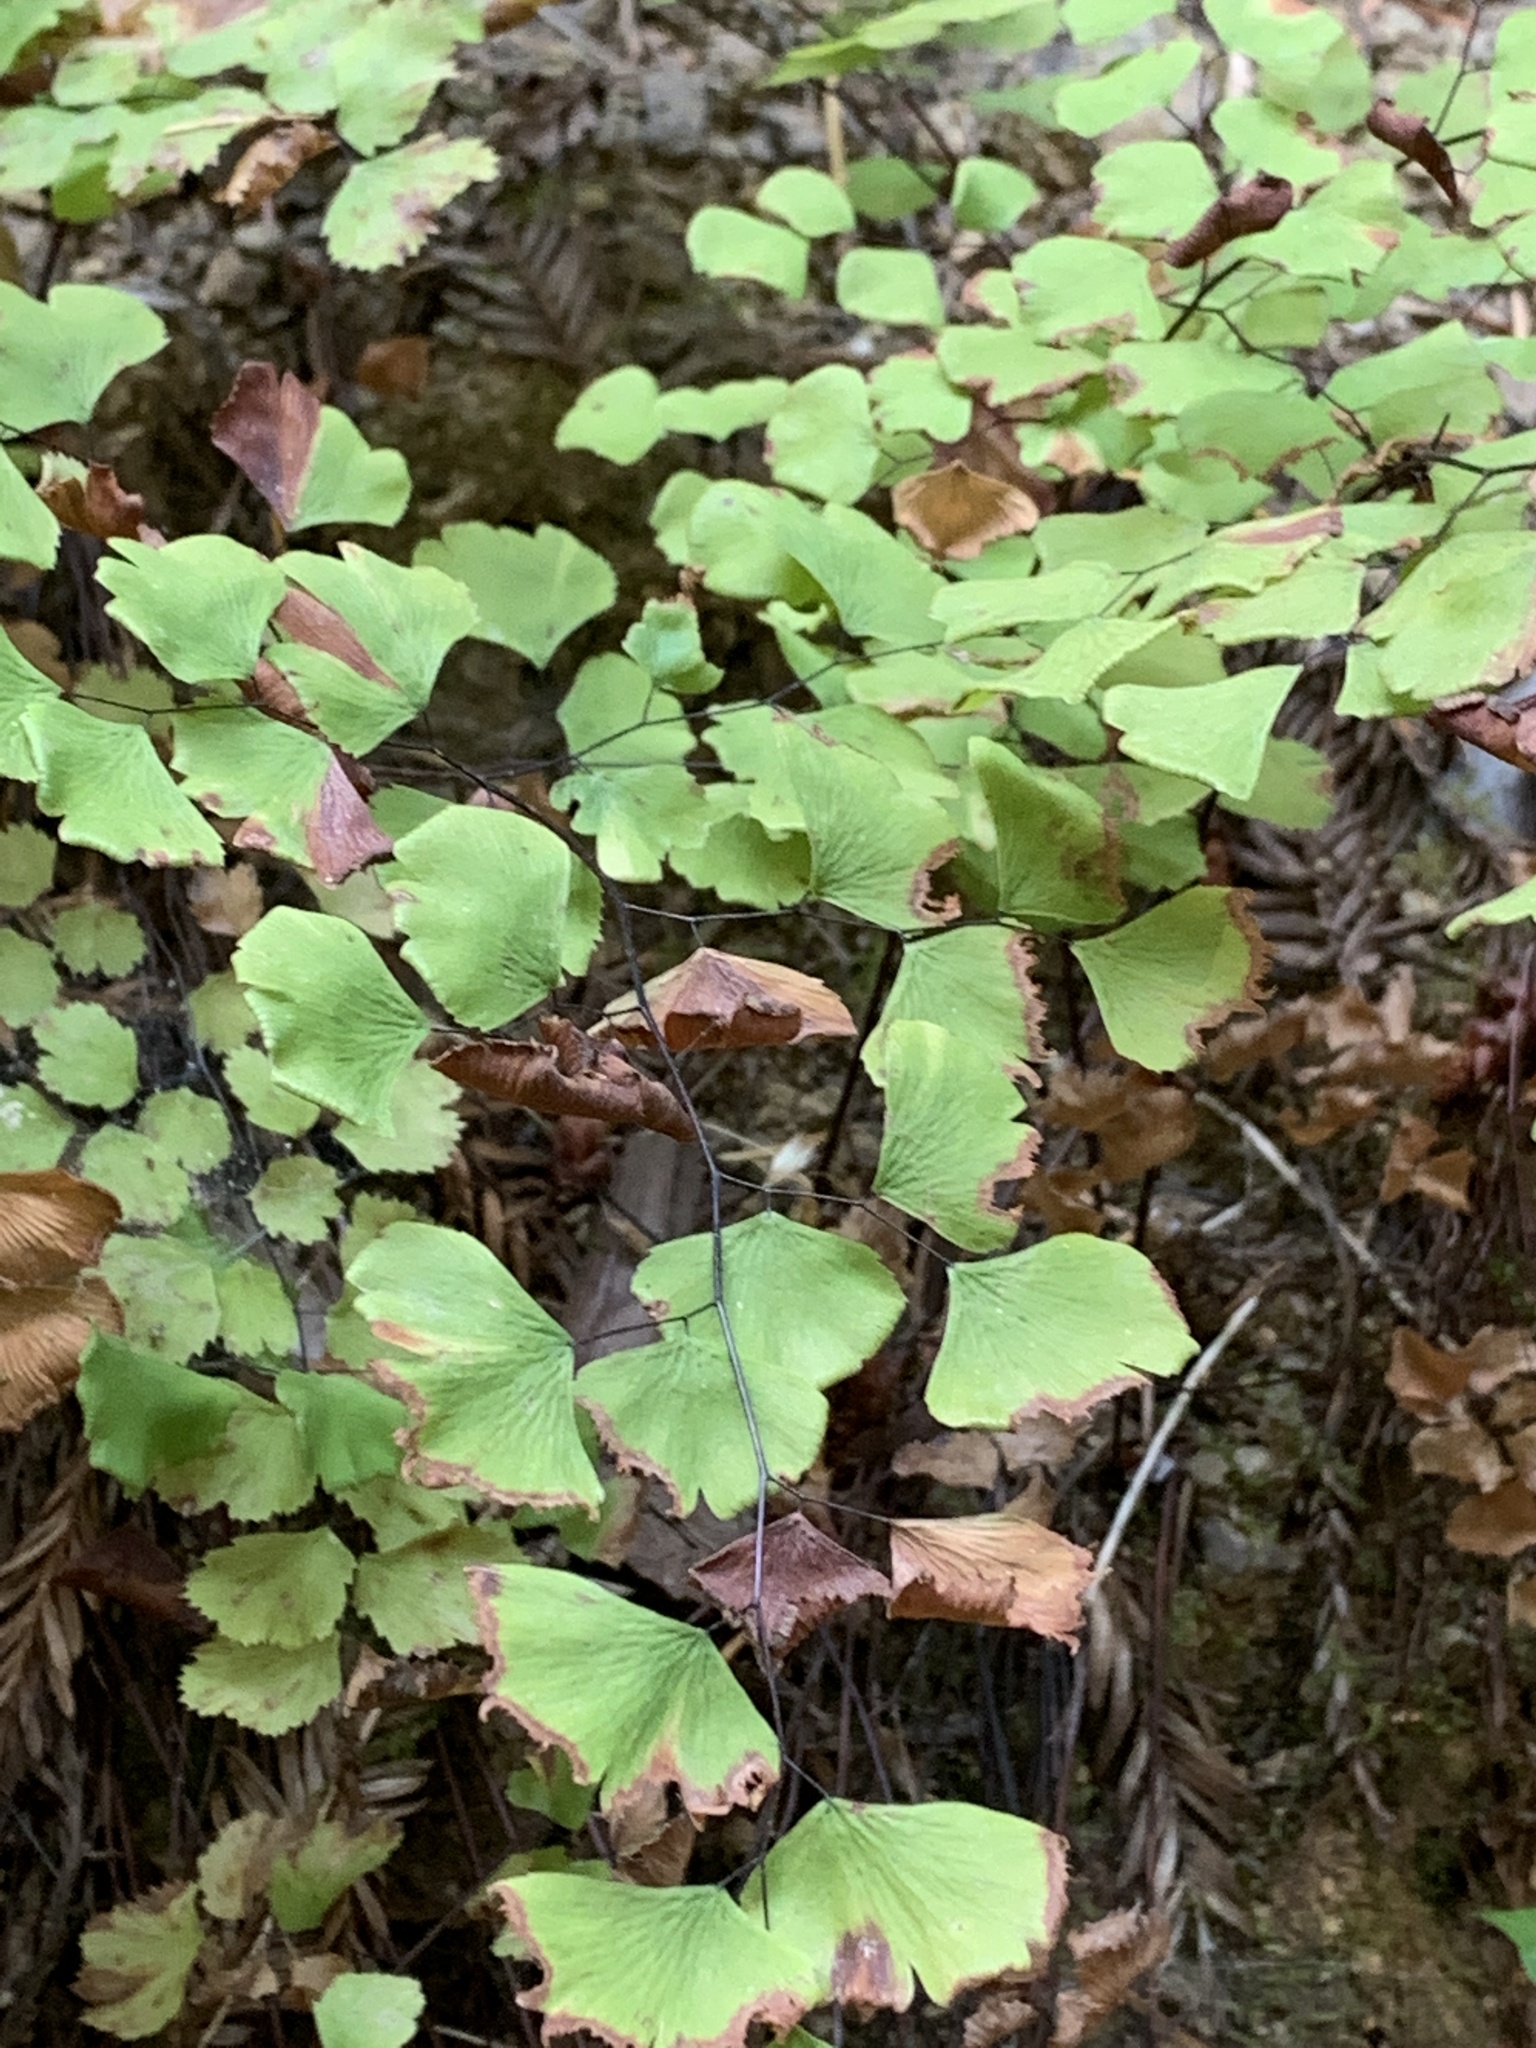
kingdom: Plantae
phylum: Tracheophyta
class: Polypodiopsida
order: Polypodiales
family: Pteridaceae
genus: Adiantum
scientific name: Adiantum jordanii
